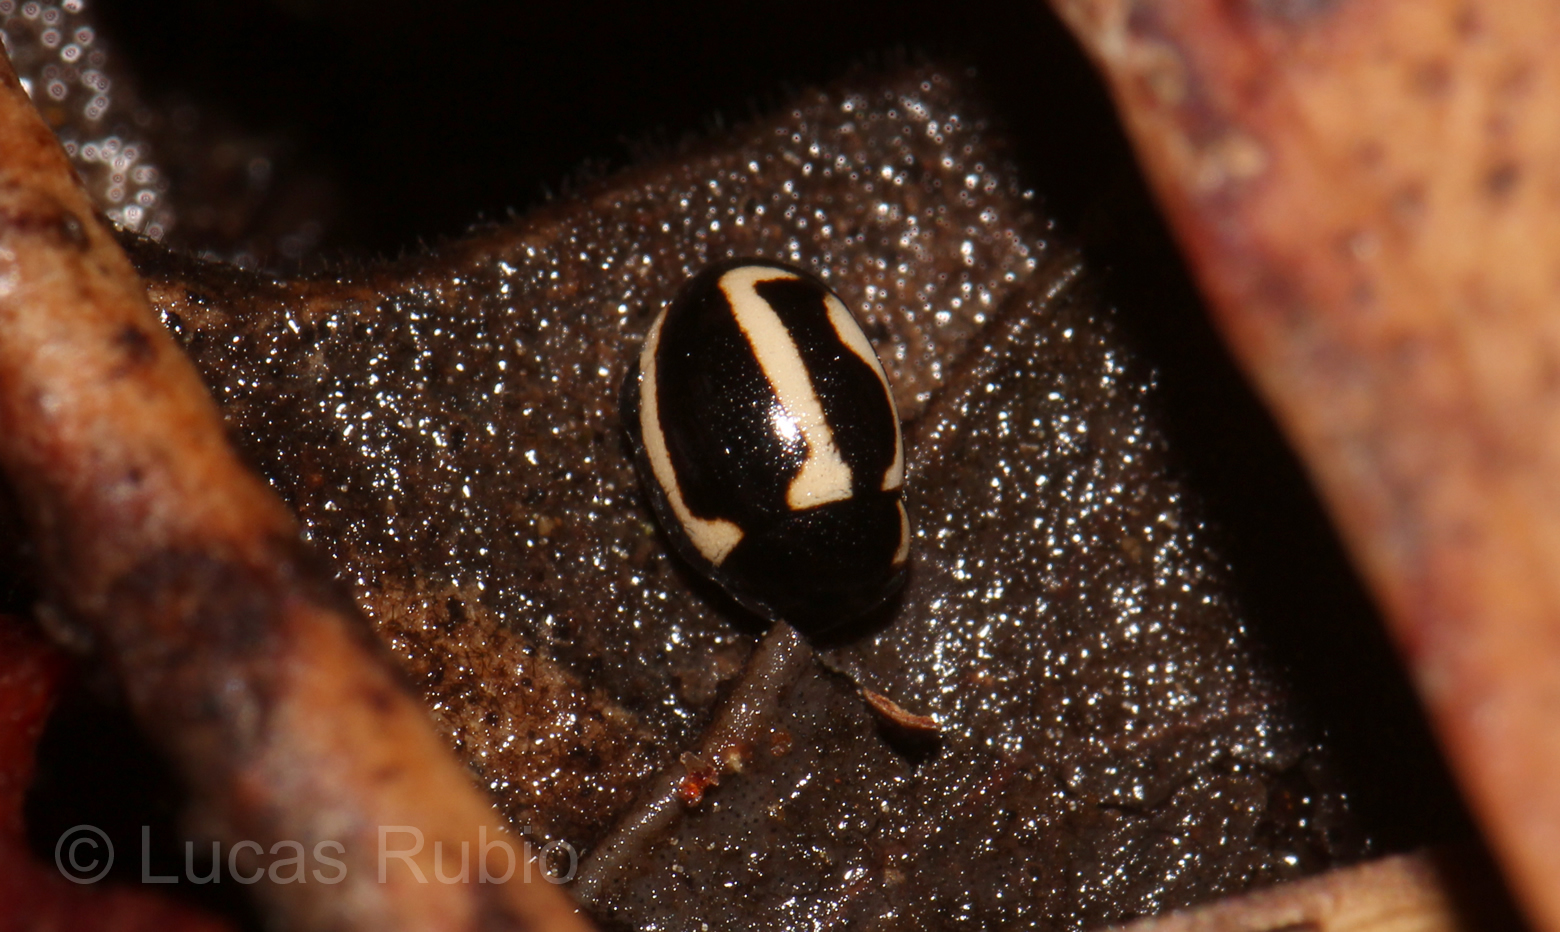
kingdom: Animalia
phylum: Arthropoda
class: Insecta
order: Coleoptera
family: Coccinellidae
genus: Hyperaspis
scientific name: Hyperaspis
